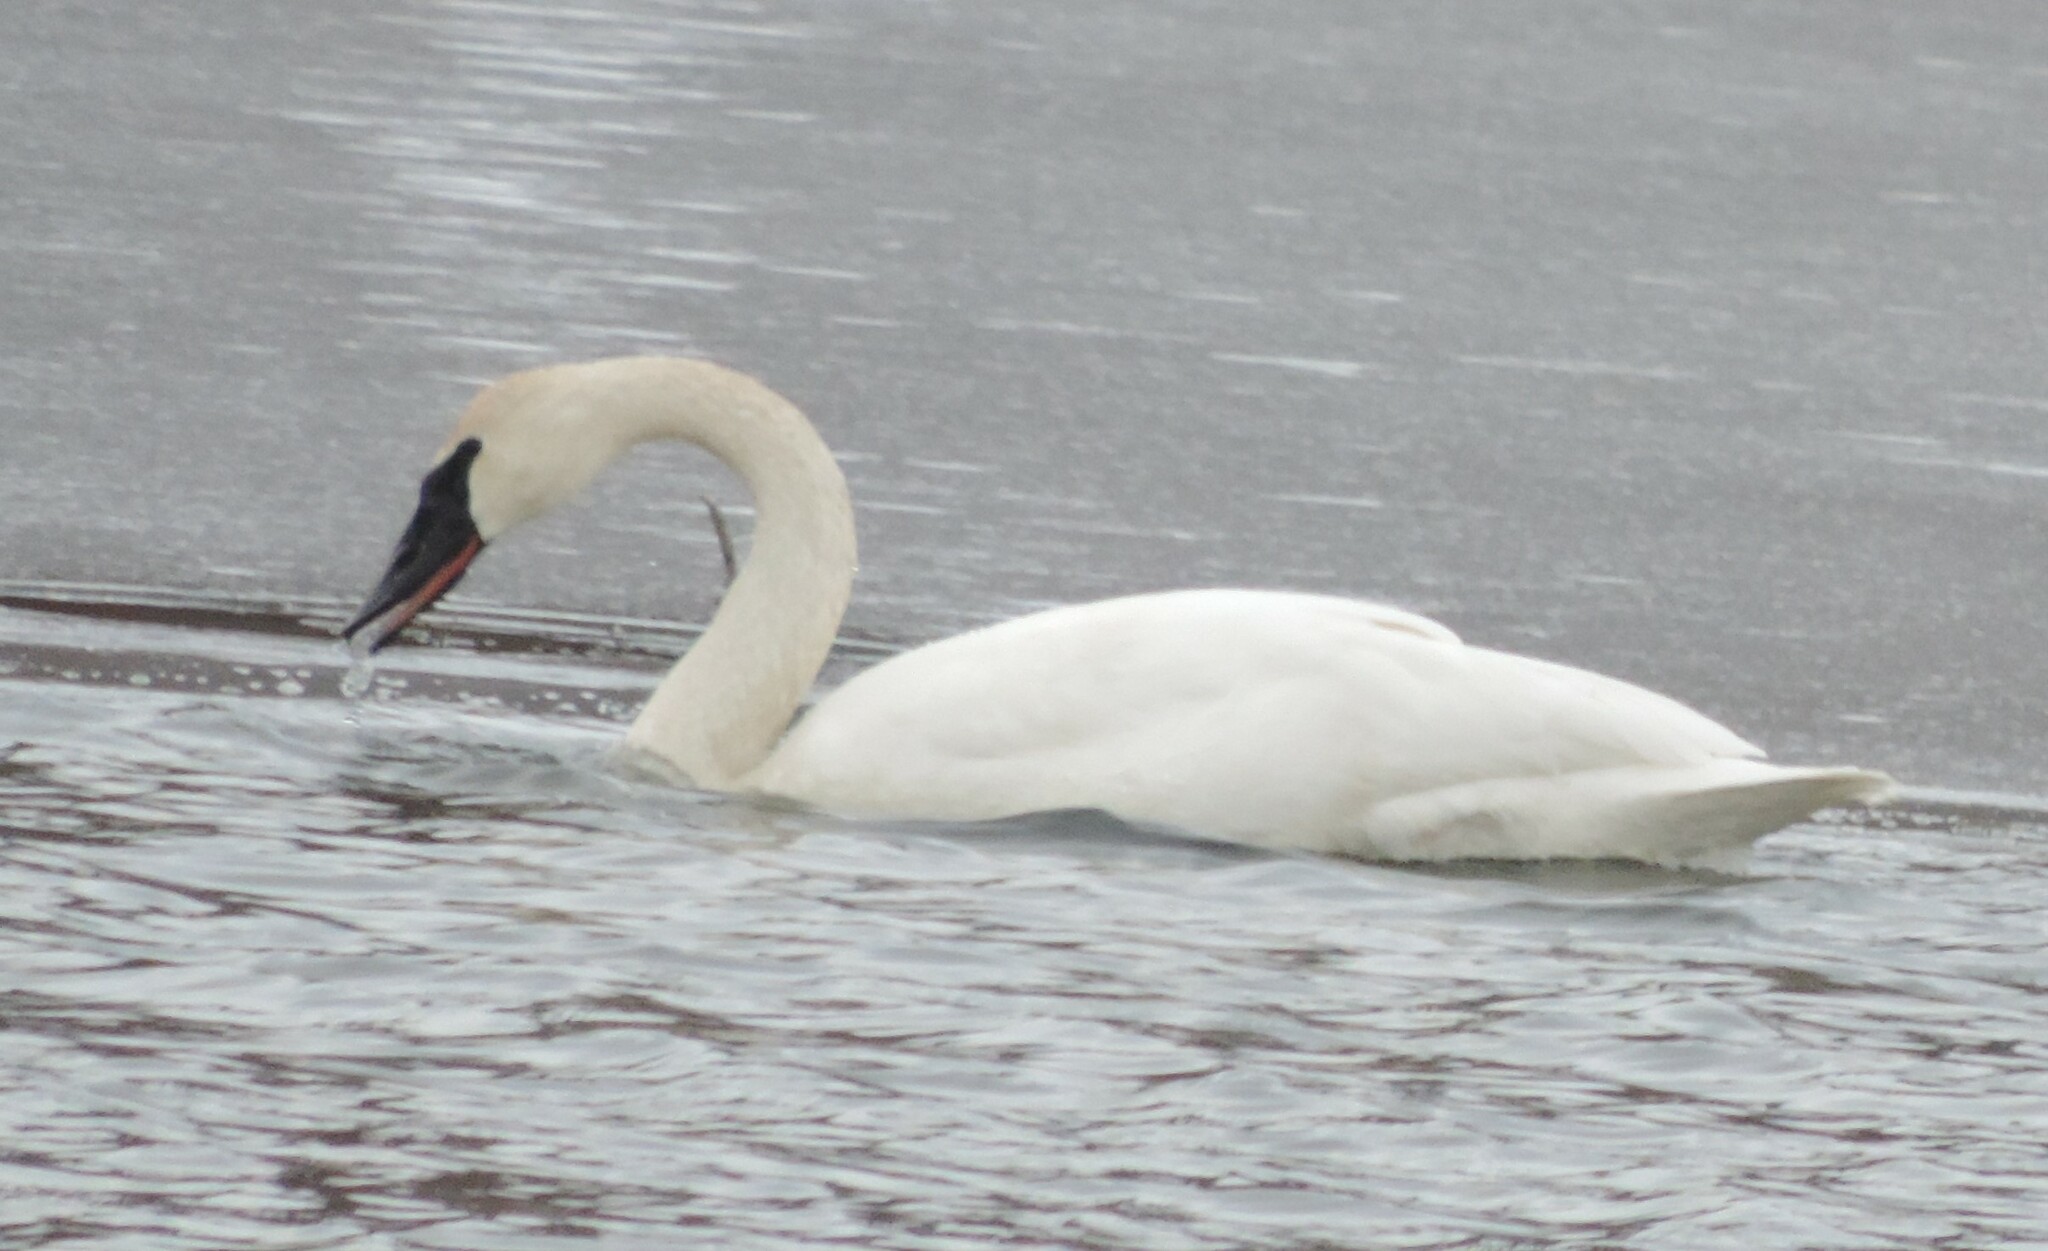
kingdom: Animalia
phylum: Chordata
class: Aves
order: Anseriformes
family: Anatidae
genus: Cygnus
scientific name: Cygnus buccinator
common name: Trumpeter swan
